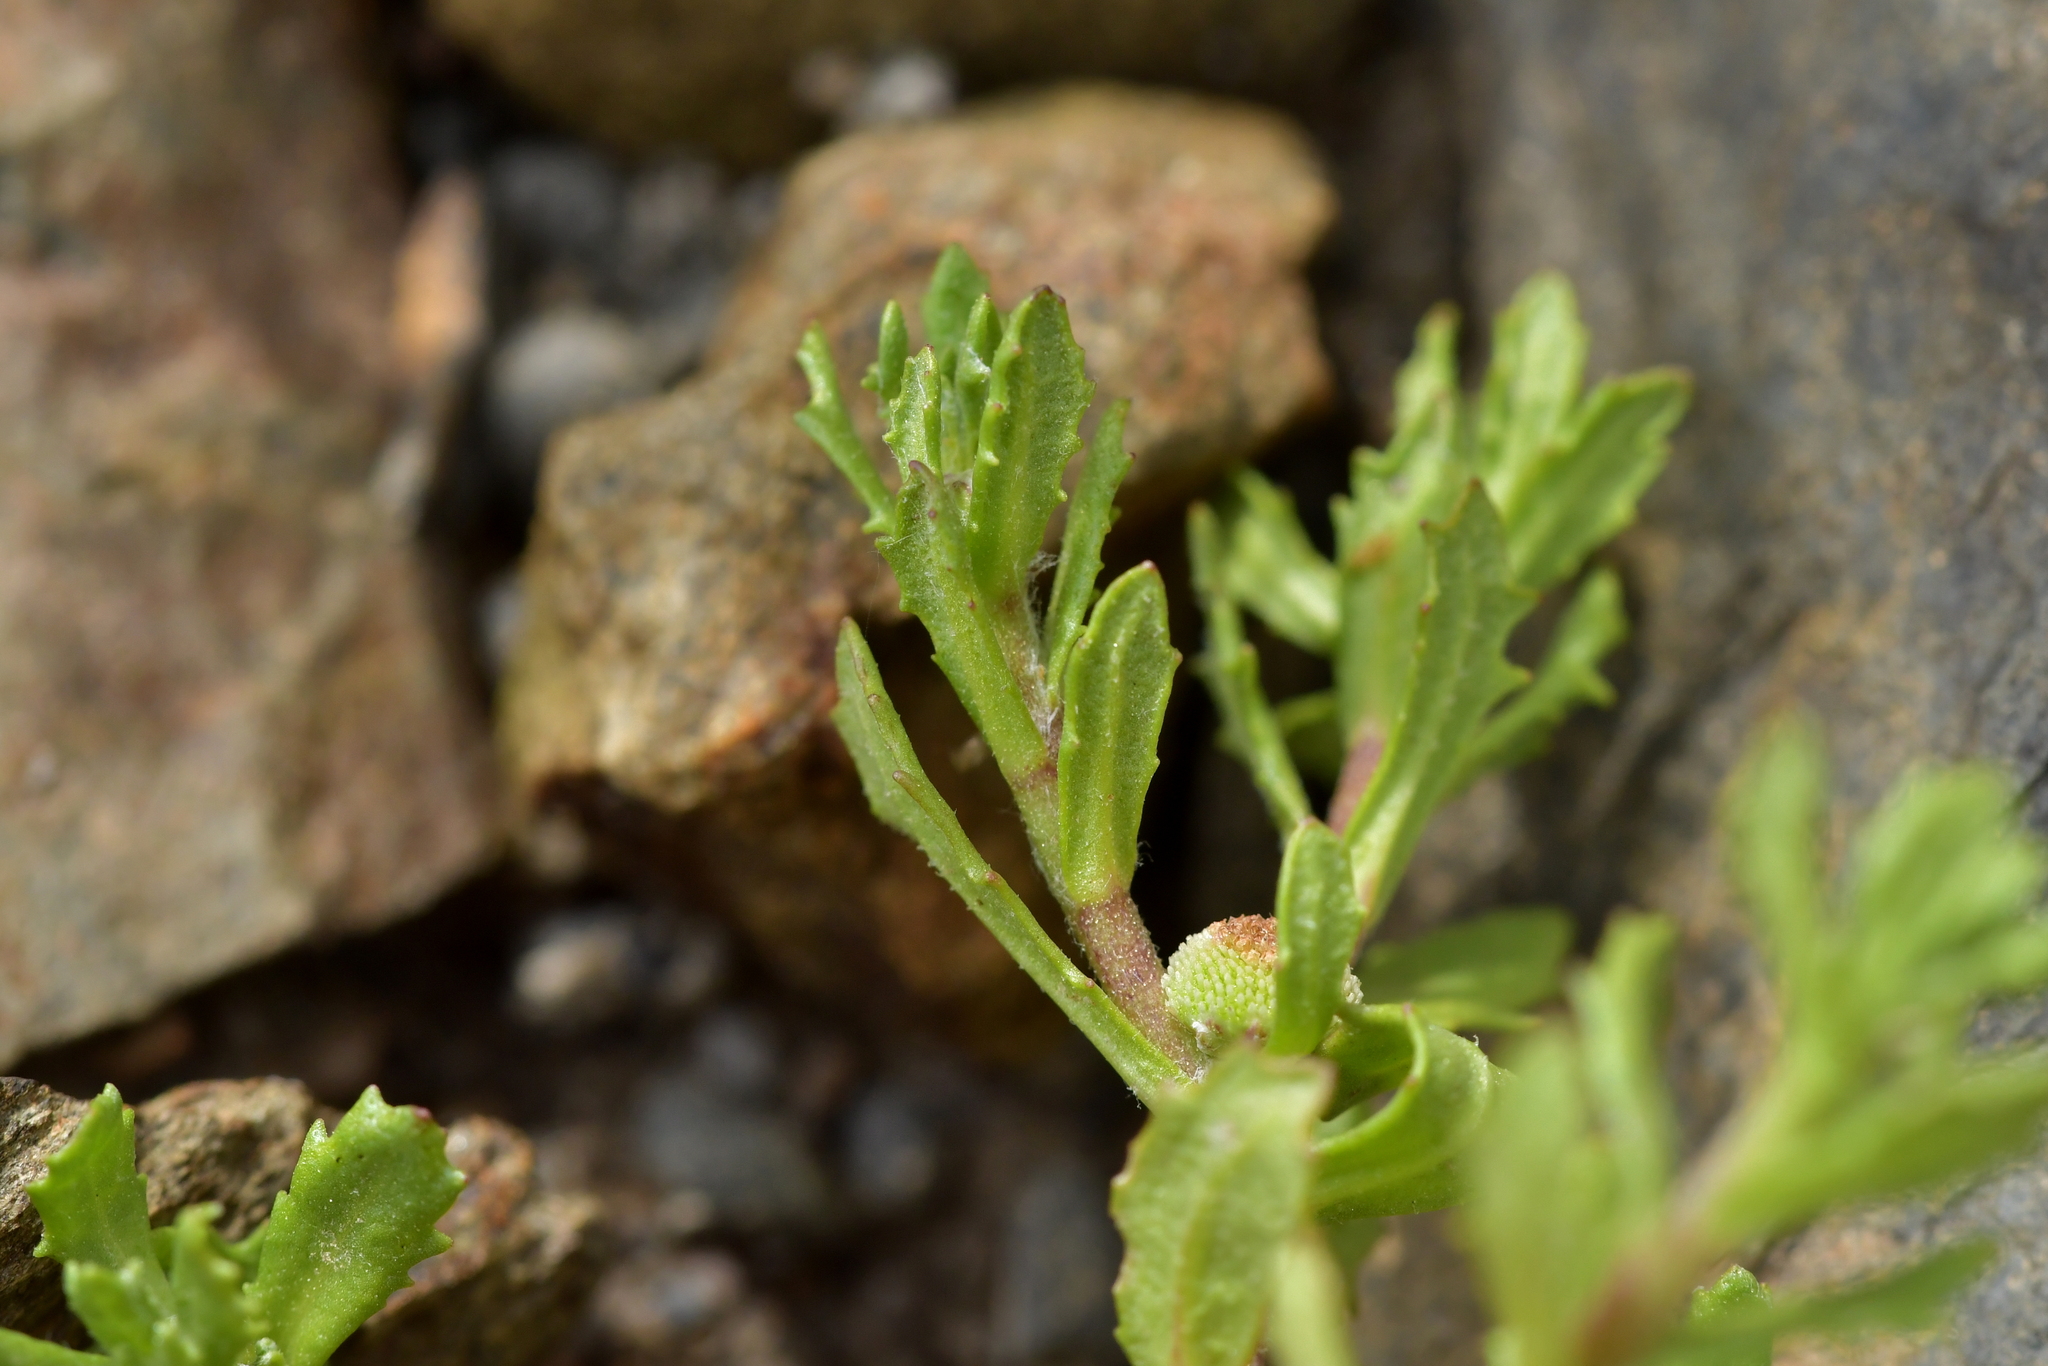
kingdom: Plantae
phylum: Tracheophyta
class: Magnoliopsida
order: Asterales
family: Asteraceae
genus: Centipeda
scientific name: Centipeda aotearoana
